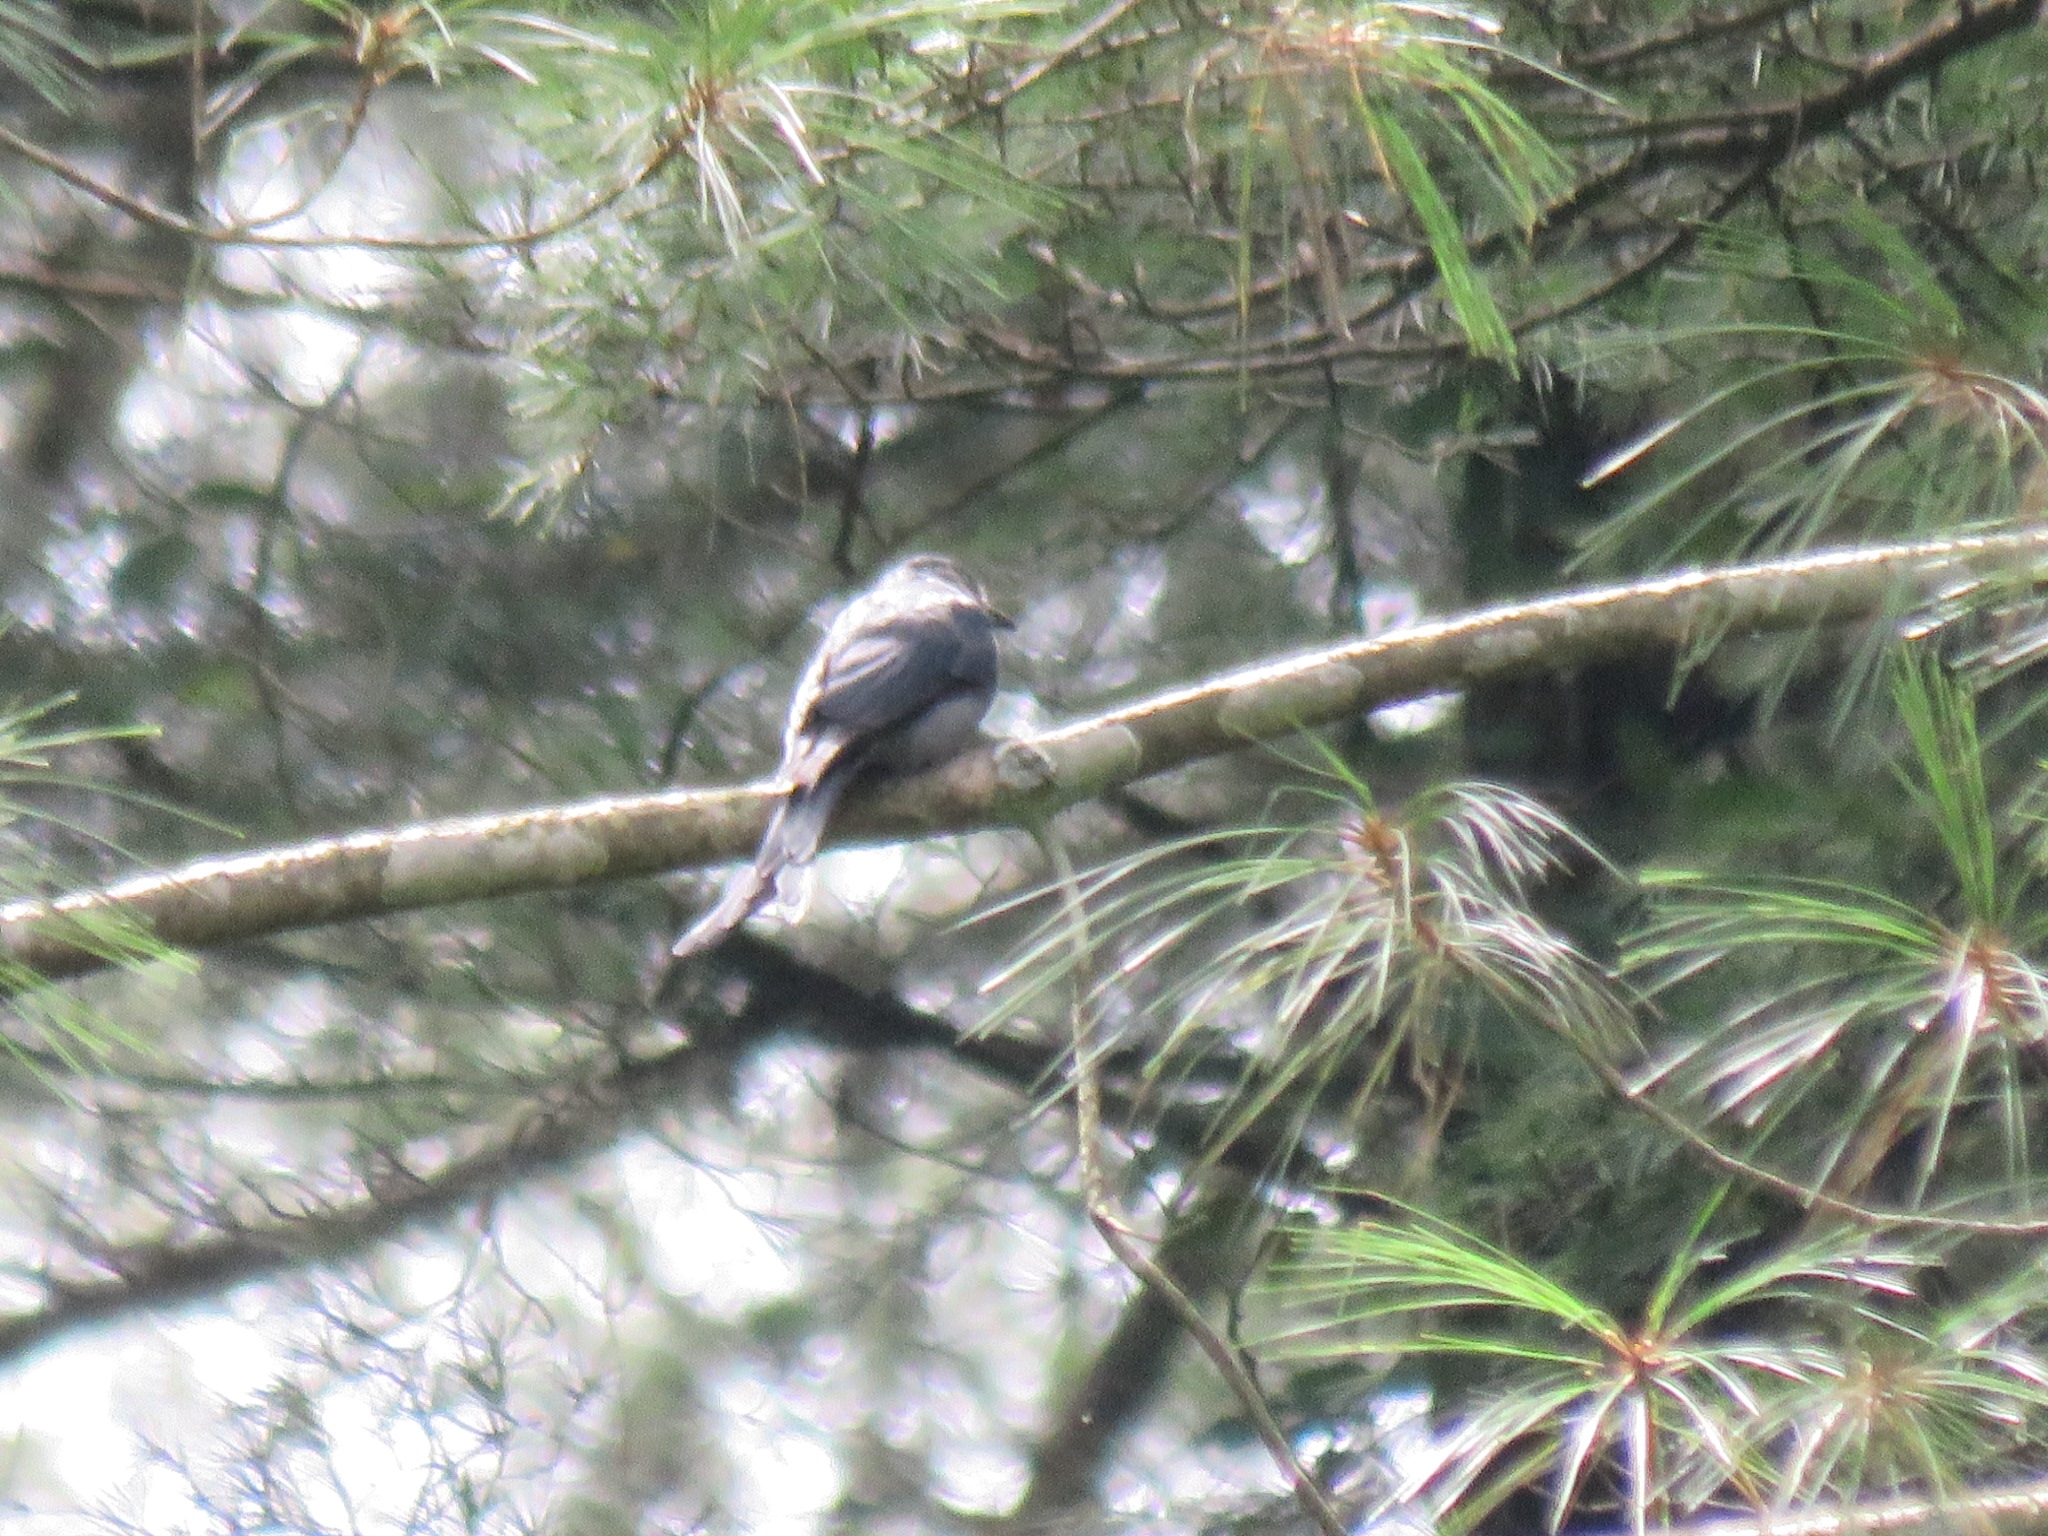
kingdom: Animalia
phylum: Chordata
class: Aves
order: Passeriformes
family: Dicruridae
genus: Dicrurus
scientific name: Dicrurus leucophaeus
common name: Ashy drongo
